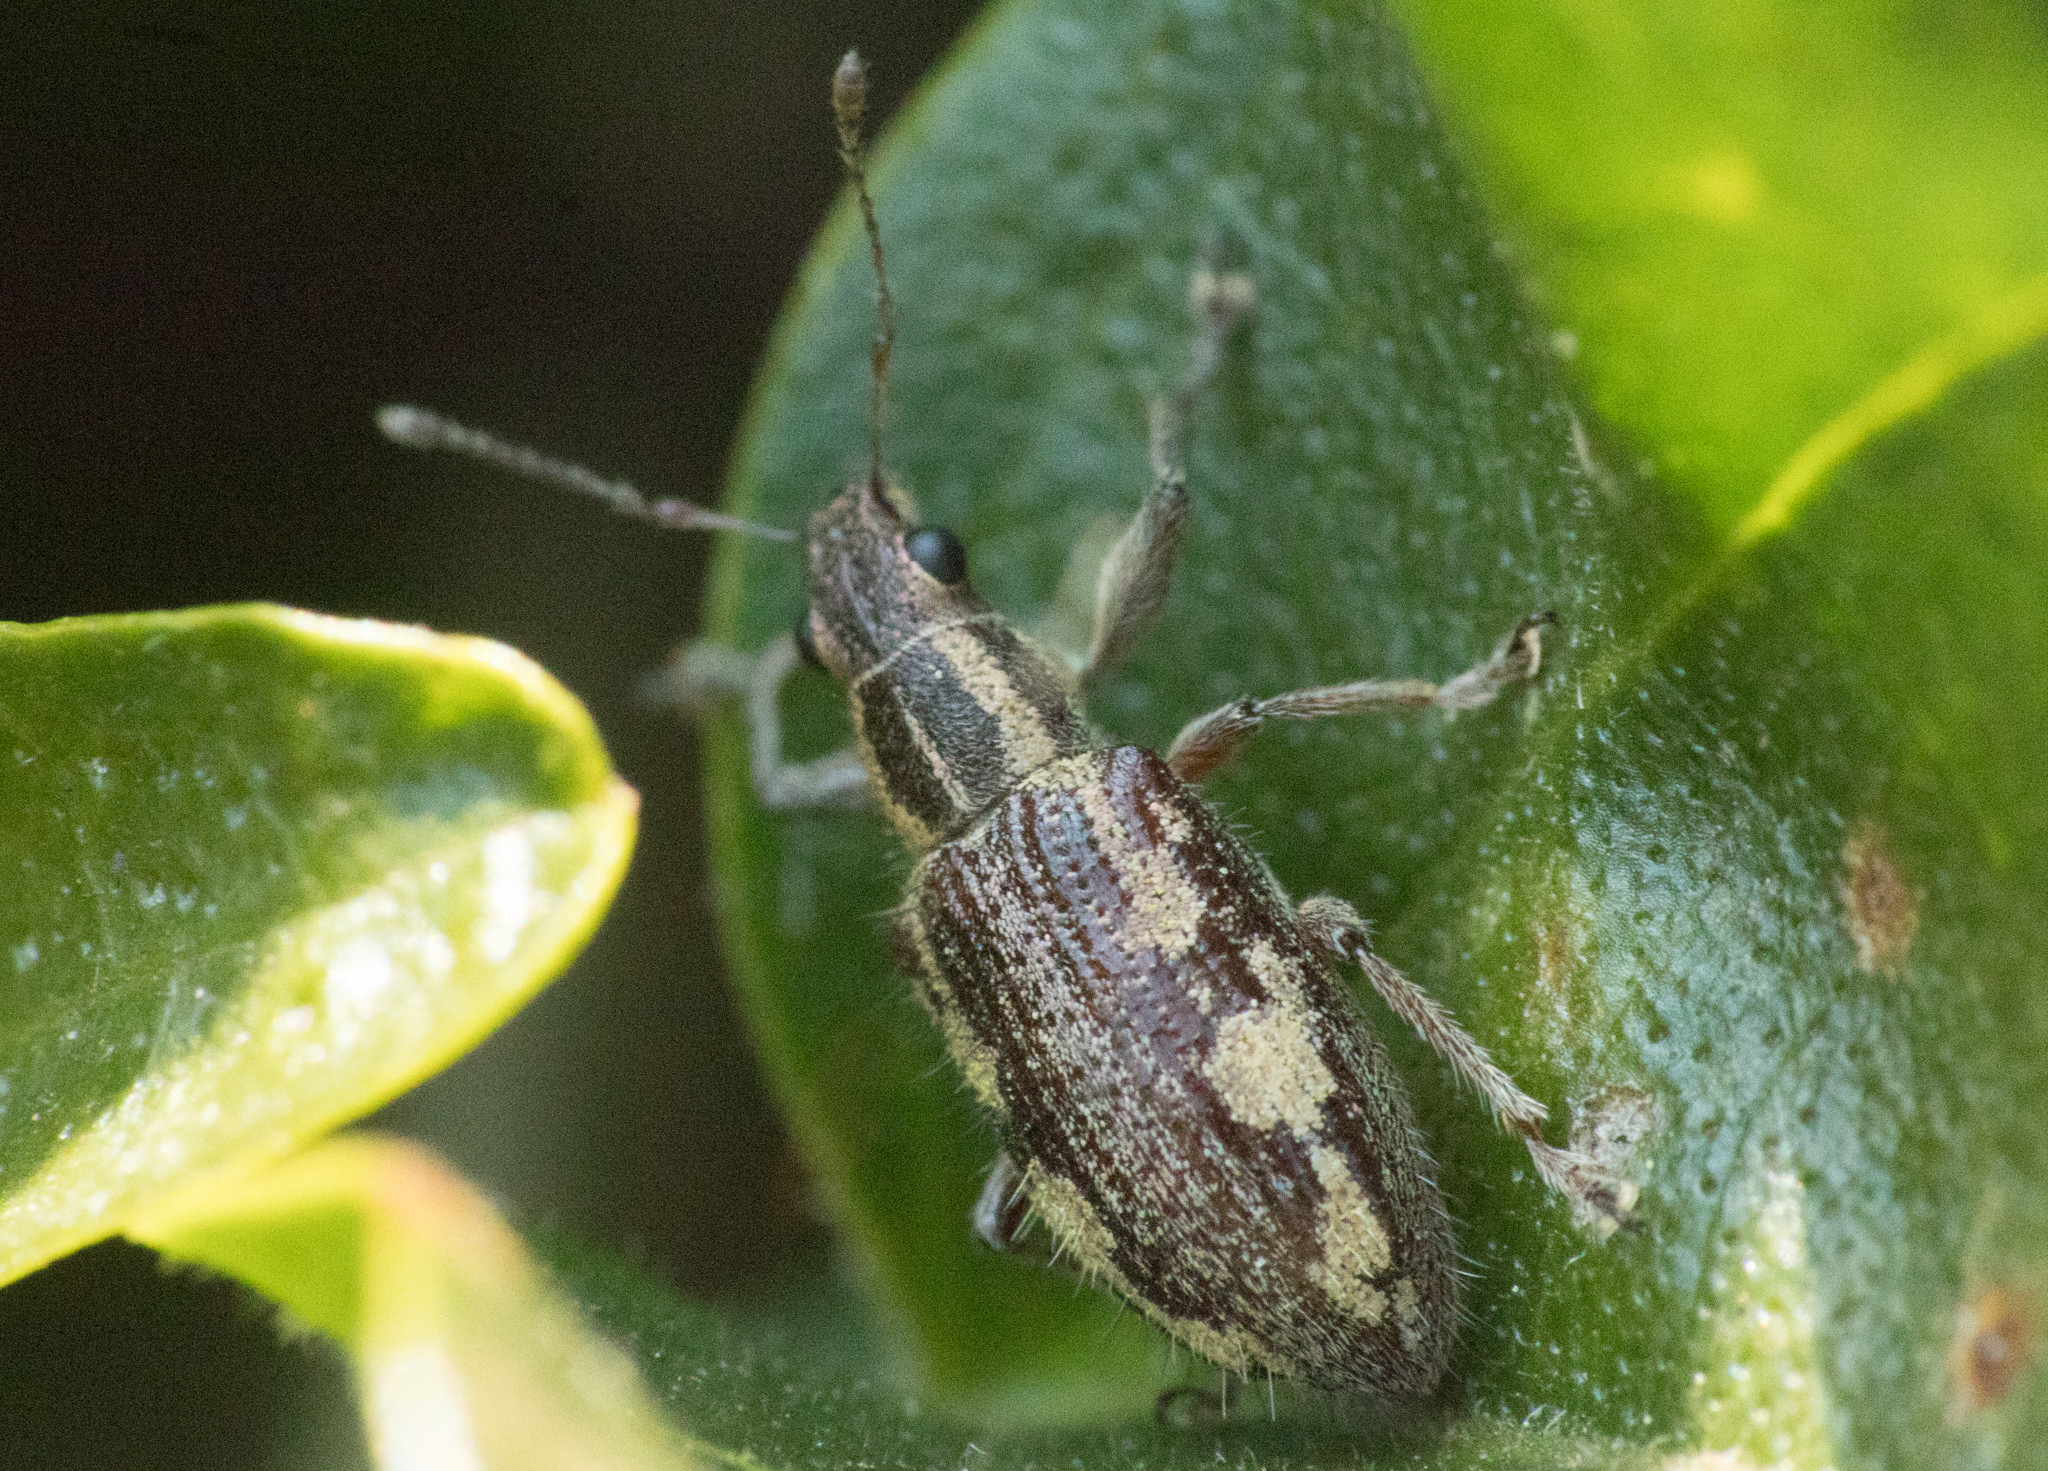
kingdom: Animalia
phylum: Arthropoda
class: Insecta
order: Coleoptera
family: Curculionidae
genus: Lanterius
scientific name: Lanterius micaceus
